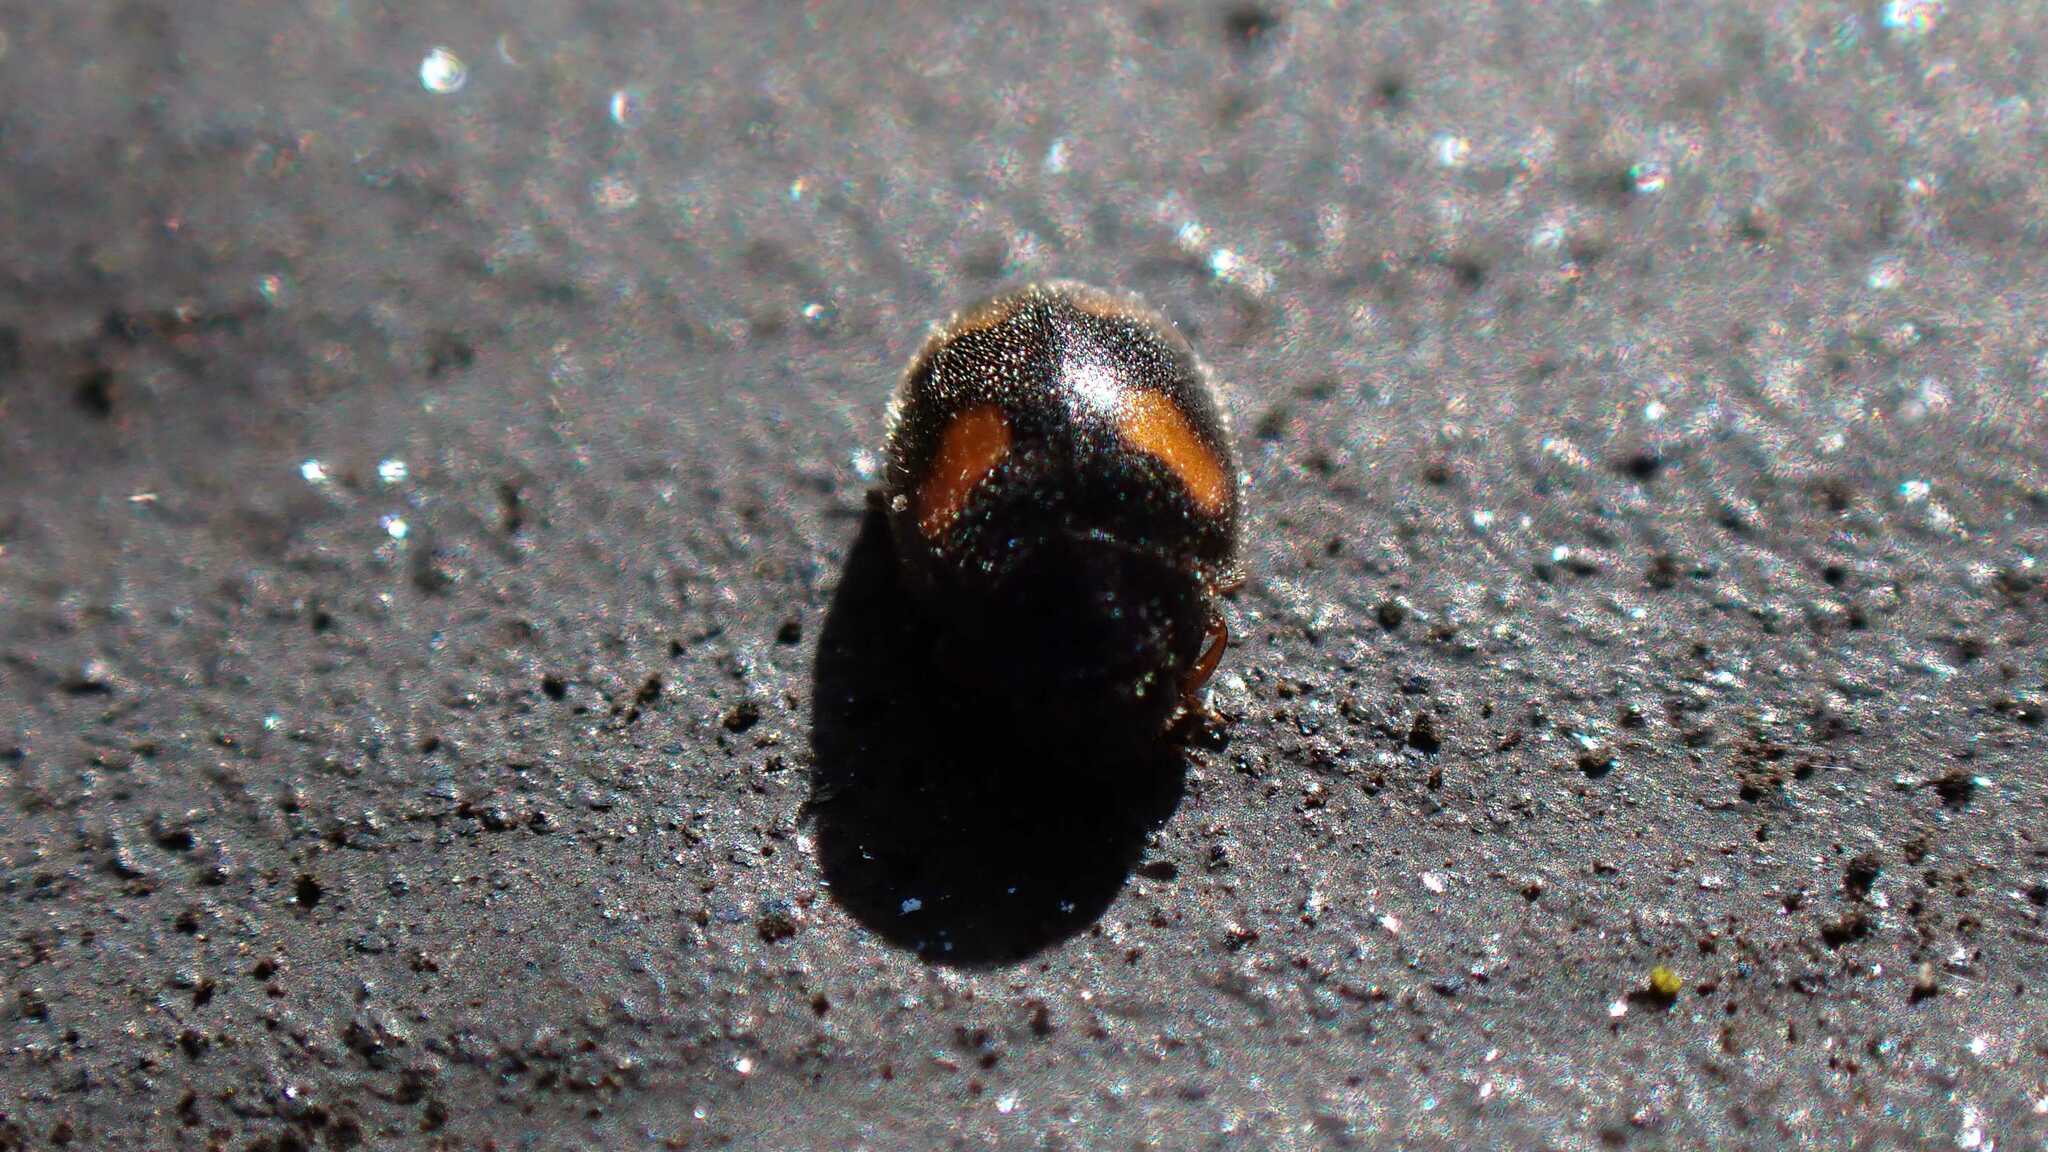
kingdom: Animalia
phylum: Arthropoda
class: Insecta
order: Coleoptera
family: Coccinellidae
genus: Nephus
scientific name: Nephus quadrimaculatus
